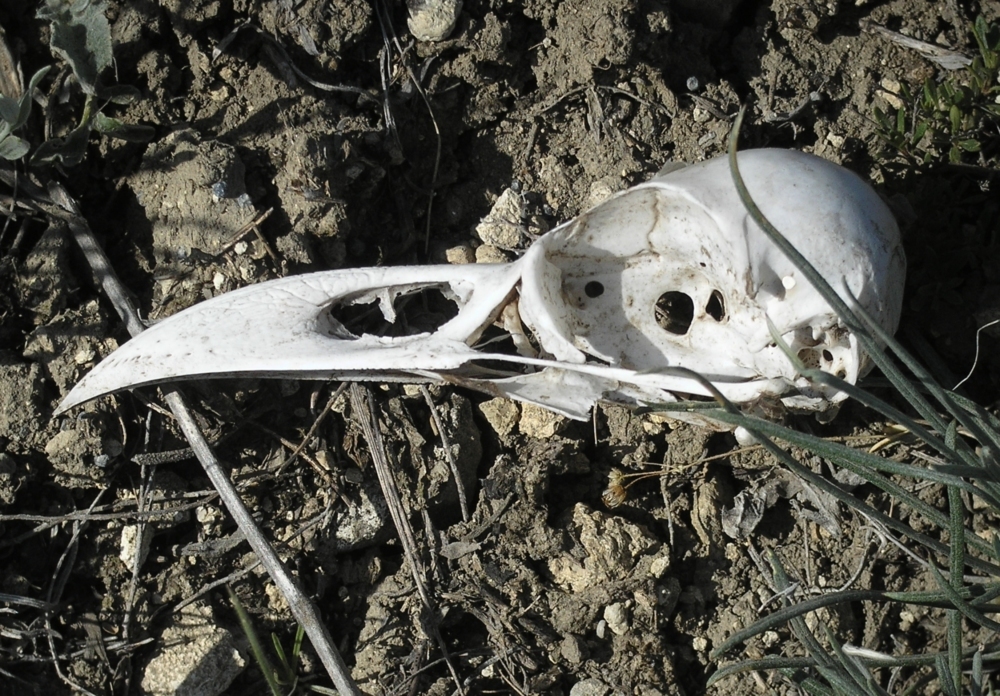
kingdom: Animalia
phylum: Chordata
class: Aves
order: Passeriformes
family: Corvidae
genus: Corvus
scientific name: Corvus corax
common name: Common raven
